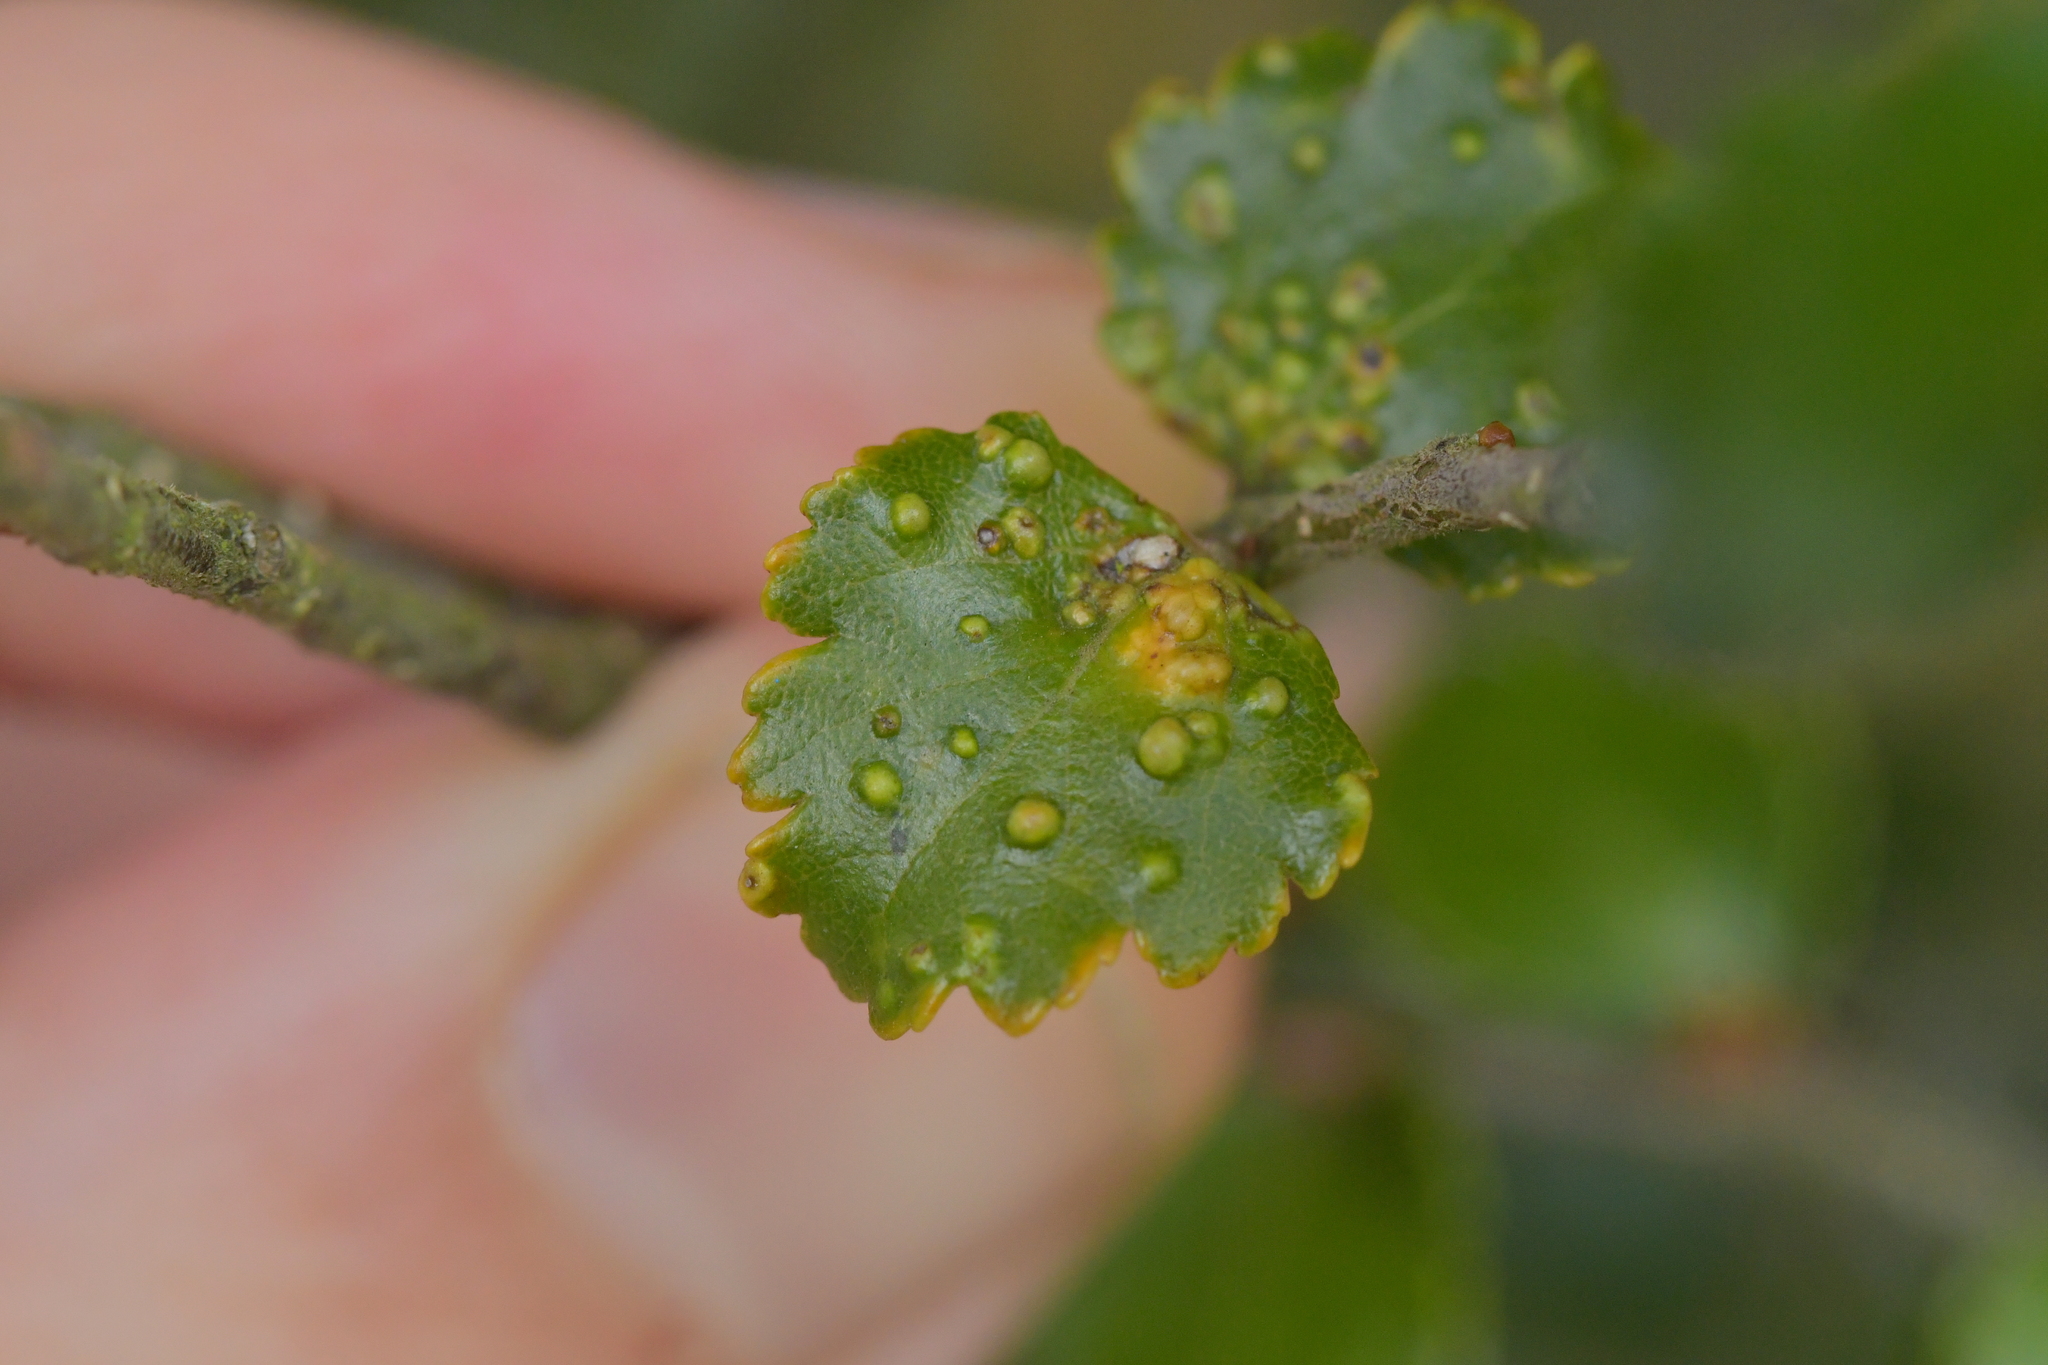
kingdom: Animalia
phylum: Arthropoda
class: Arachnida
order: Trombidiformes
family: Eriophyidae
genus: Nothacus
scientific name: Nothacus tuberculatus
